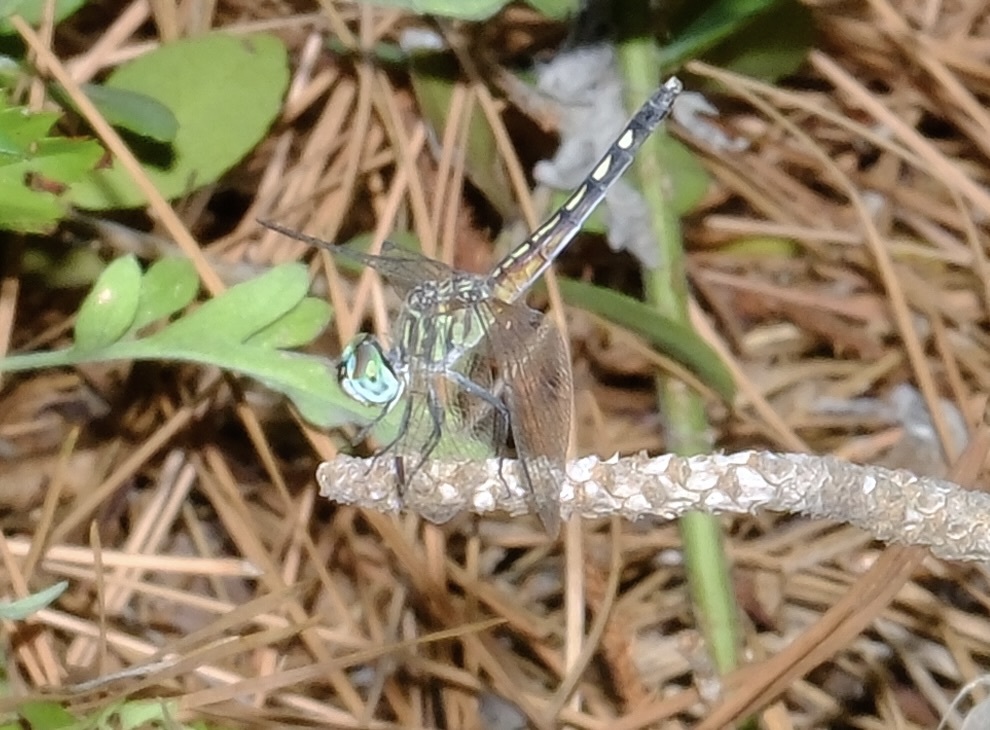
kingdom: Animalia
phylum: Arthropoda
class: Insecta
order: Odonata
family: Libellulidae
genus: Pachydiplax
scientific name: Pachydiplax longipennis
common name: Blue dasher
